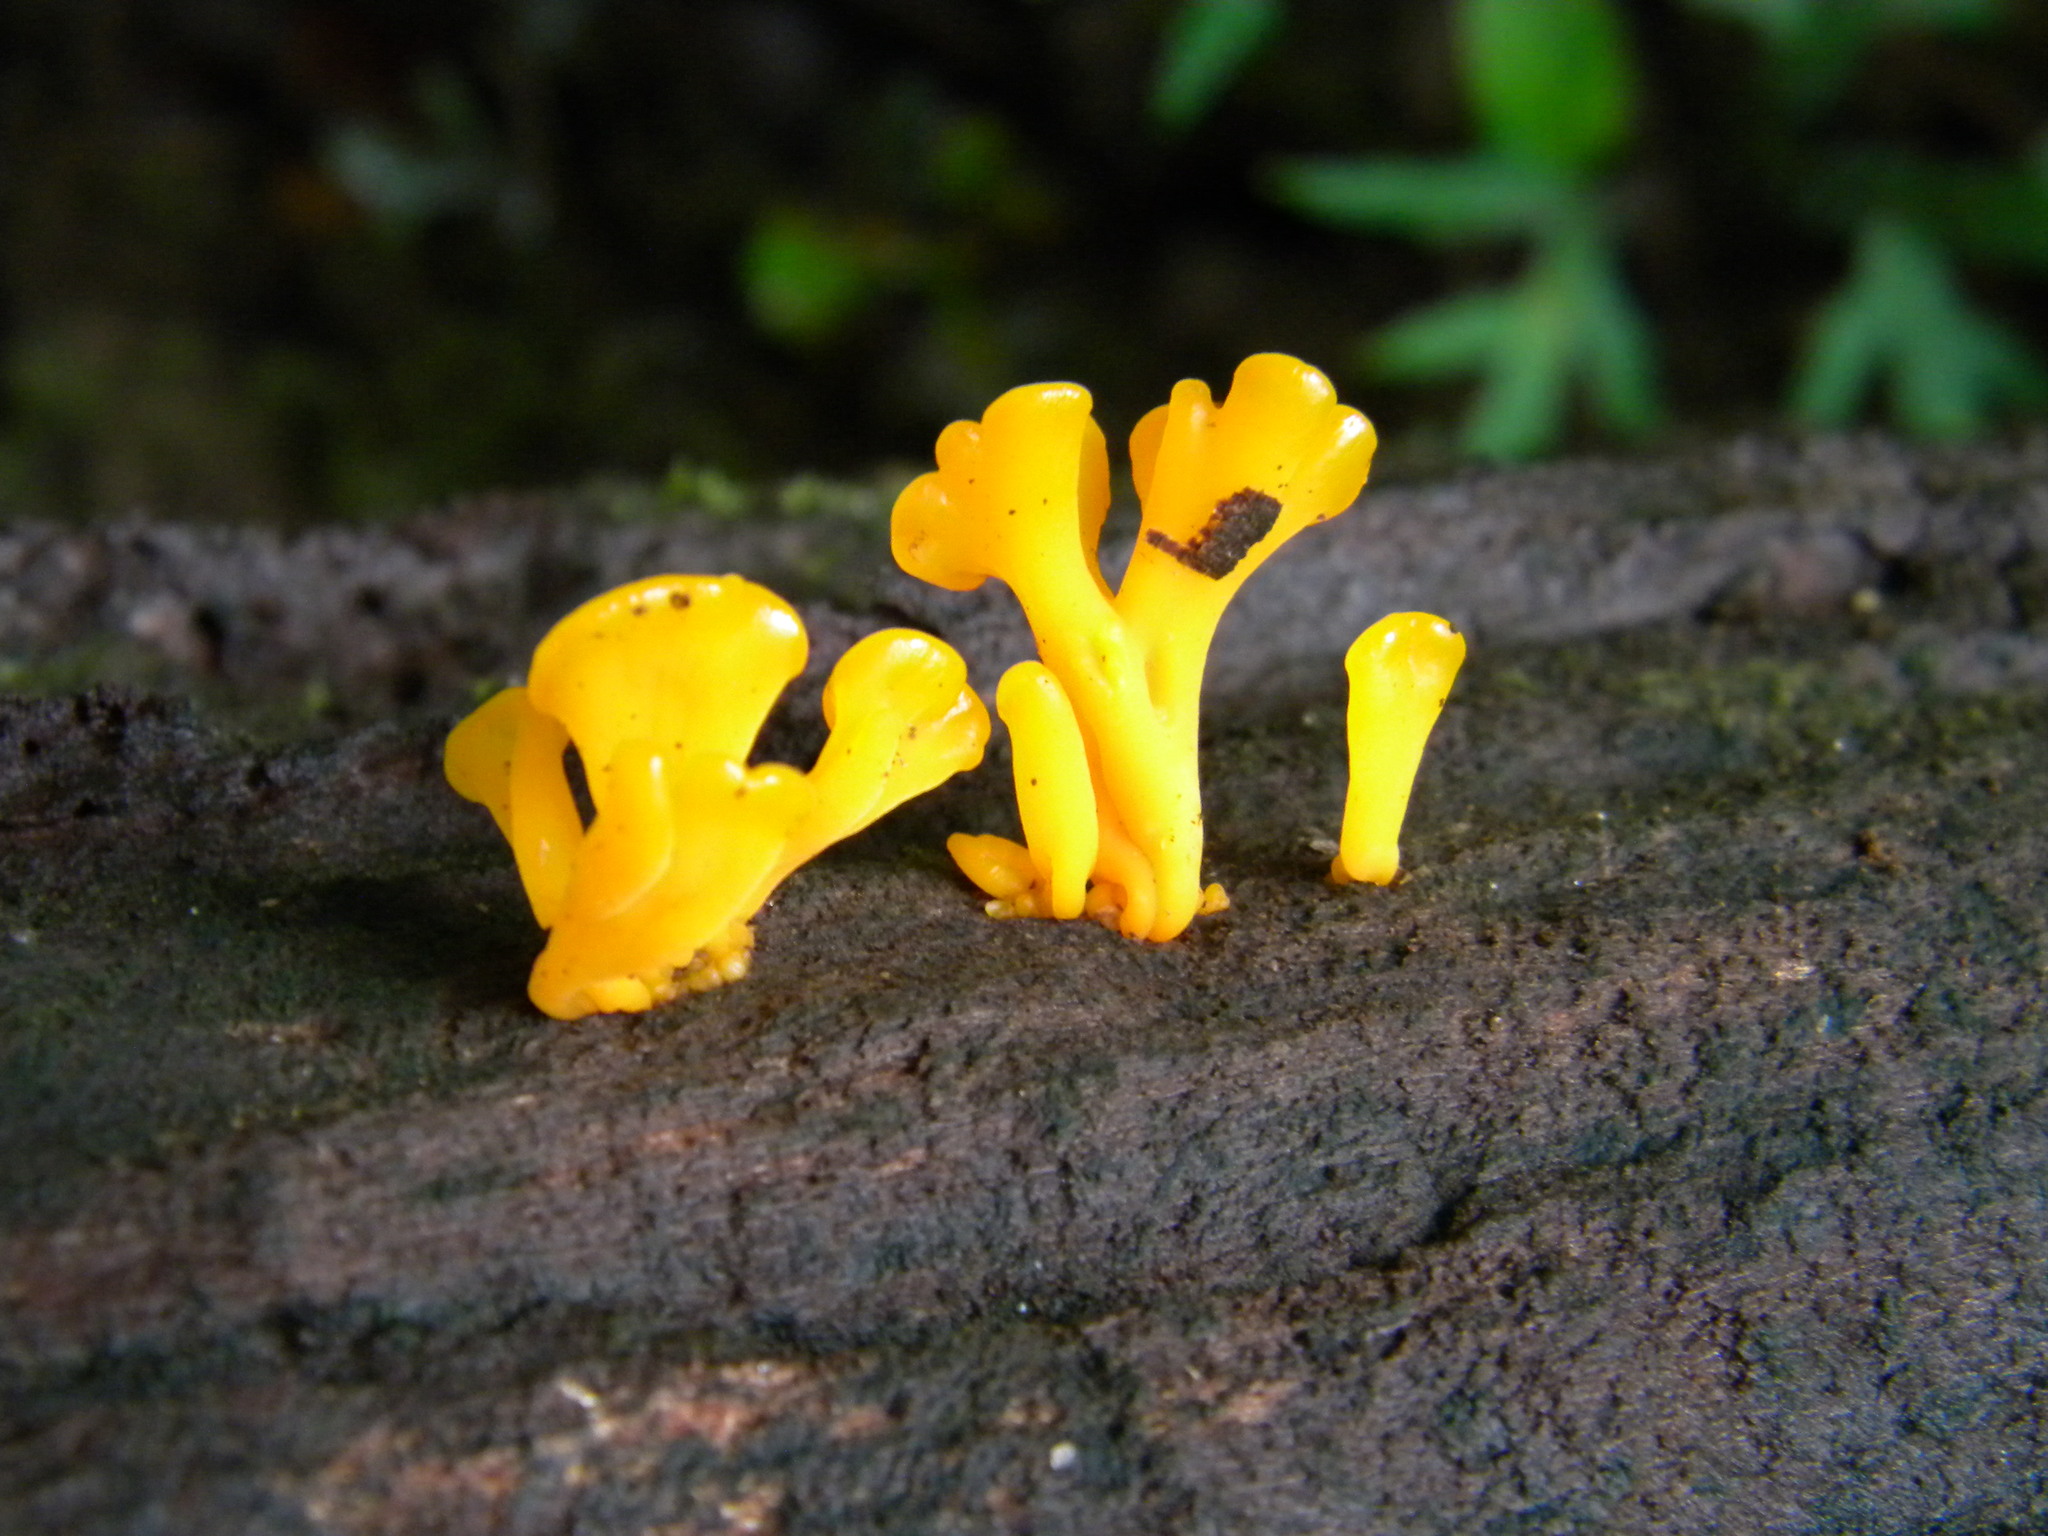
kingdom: Fungi
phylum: Basidiomycota
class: Dacrymycetes
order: Dacrymycetales
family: Dacrymycetaceae
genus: Dacrymyces
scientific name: Dacrymyces spathularius
